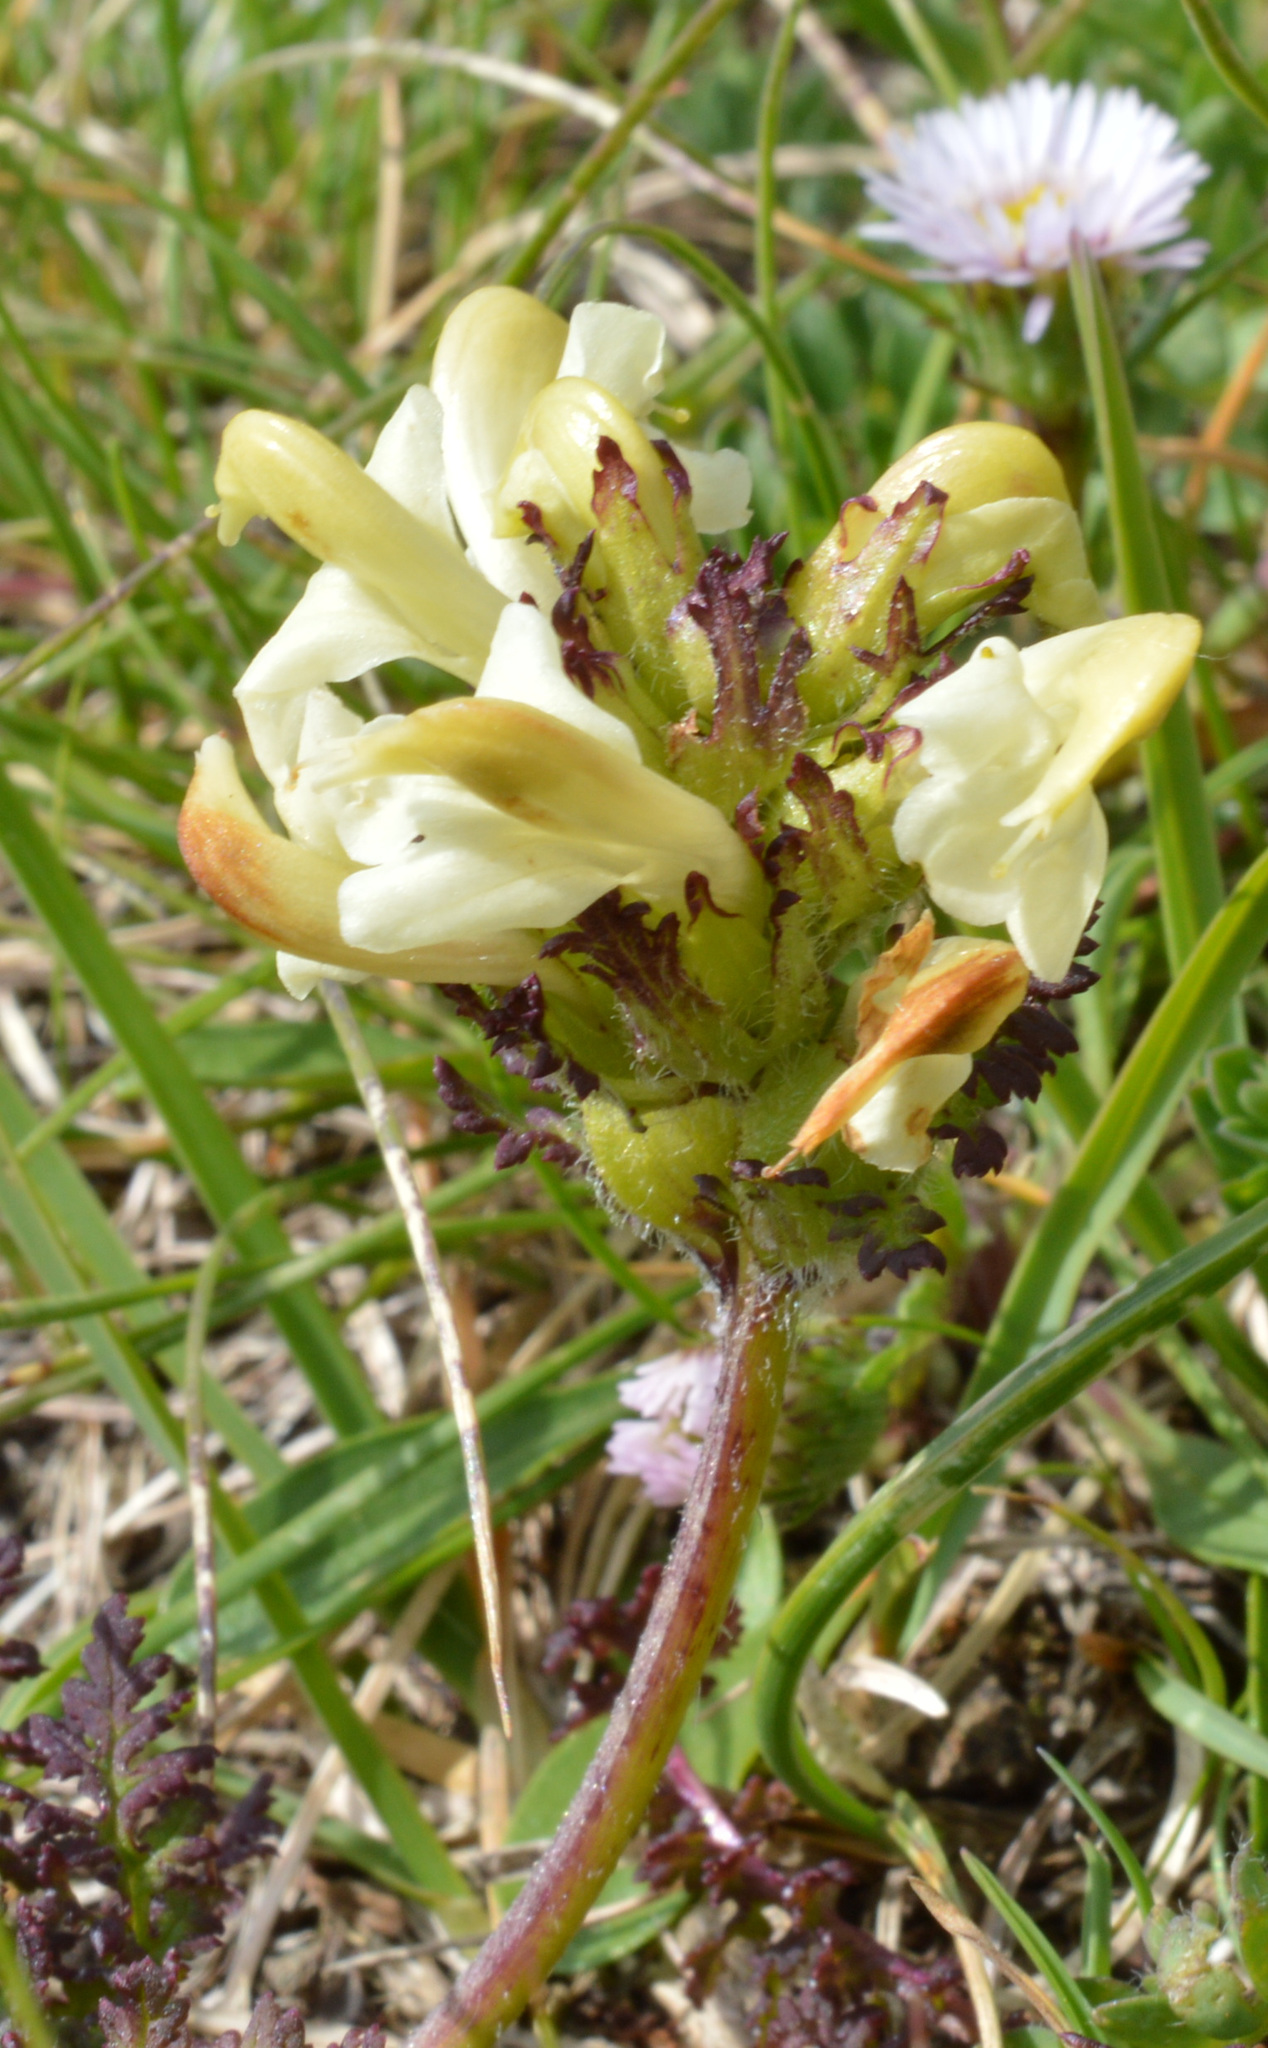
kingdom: Plantae
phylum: Tracheophyta
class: Magnoliopsida
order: Lamiales
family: Orobanchaceae
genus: Pedicularis
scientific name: Pedicularis tuberosa
